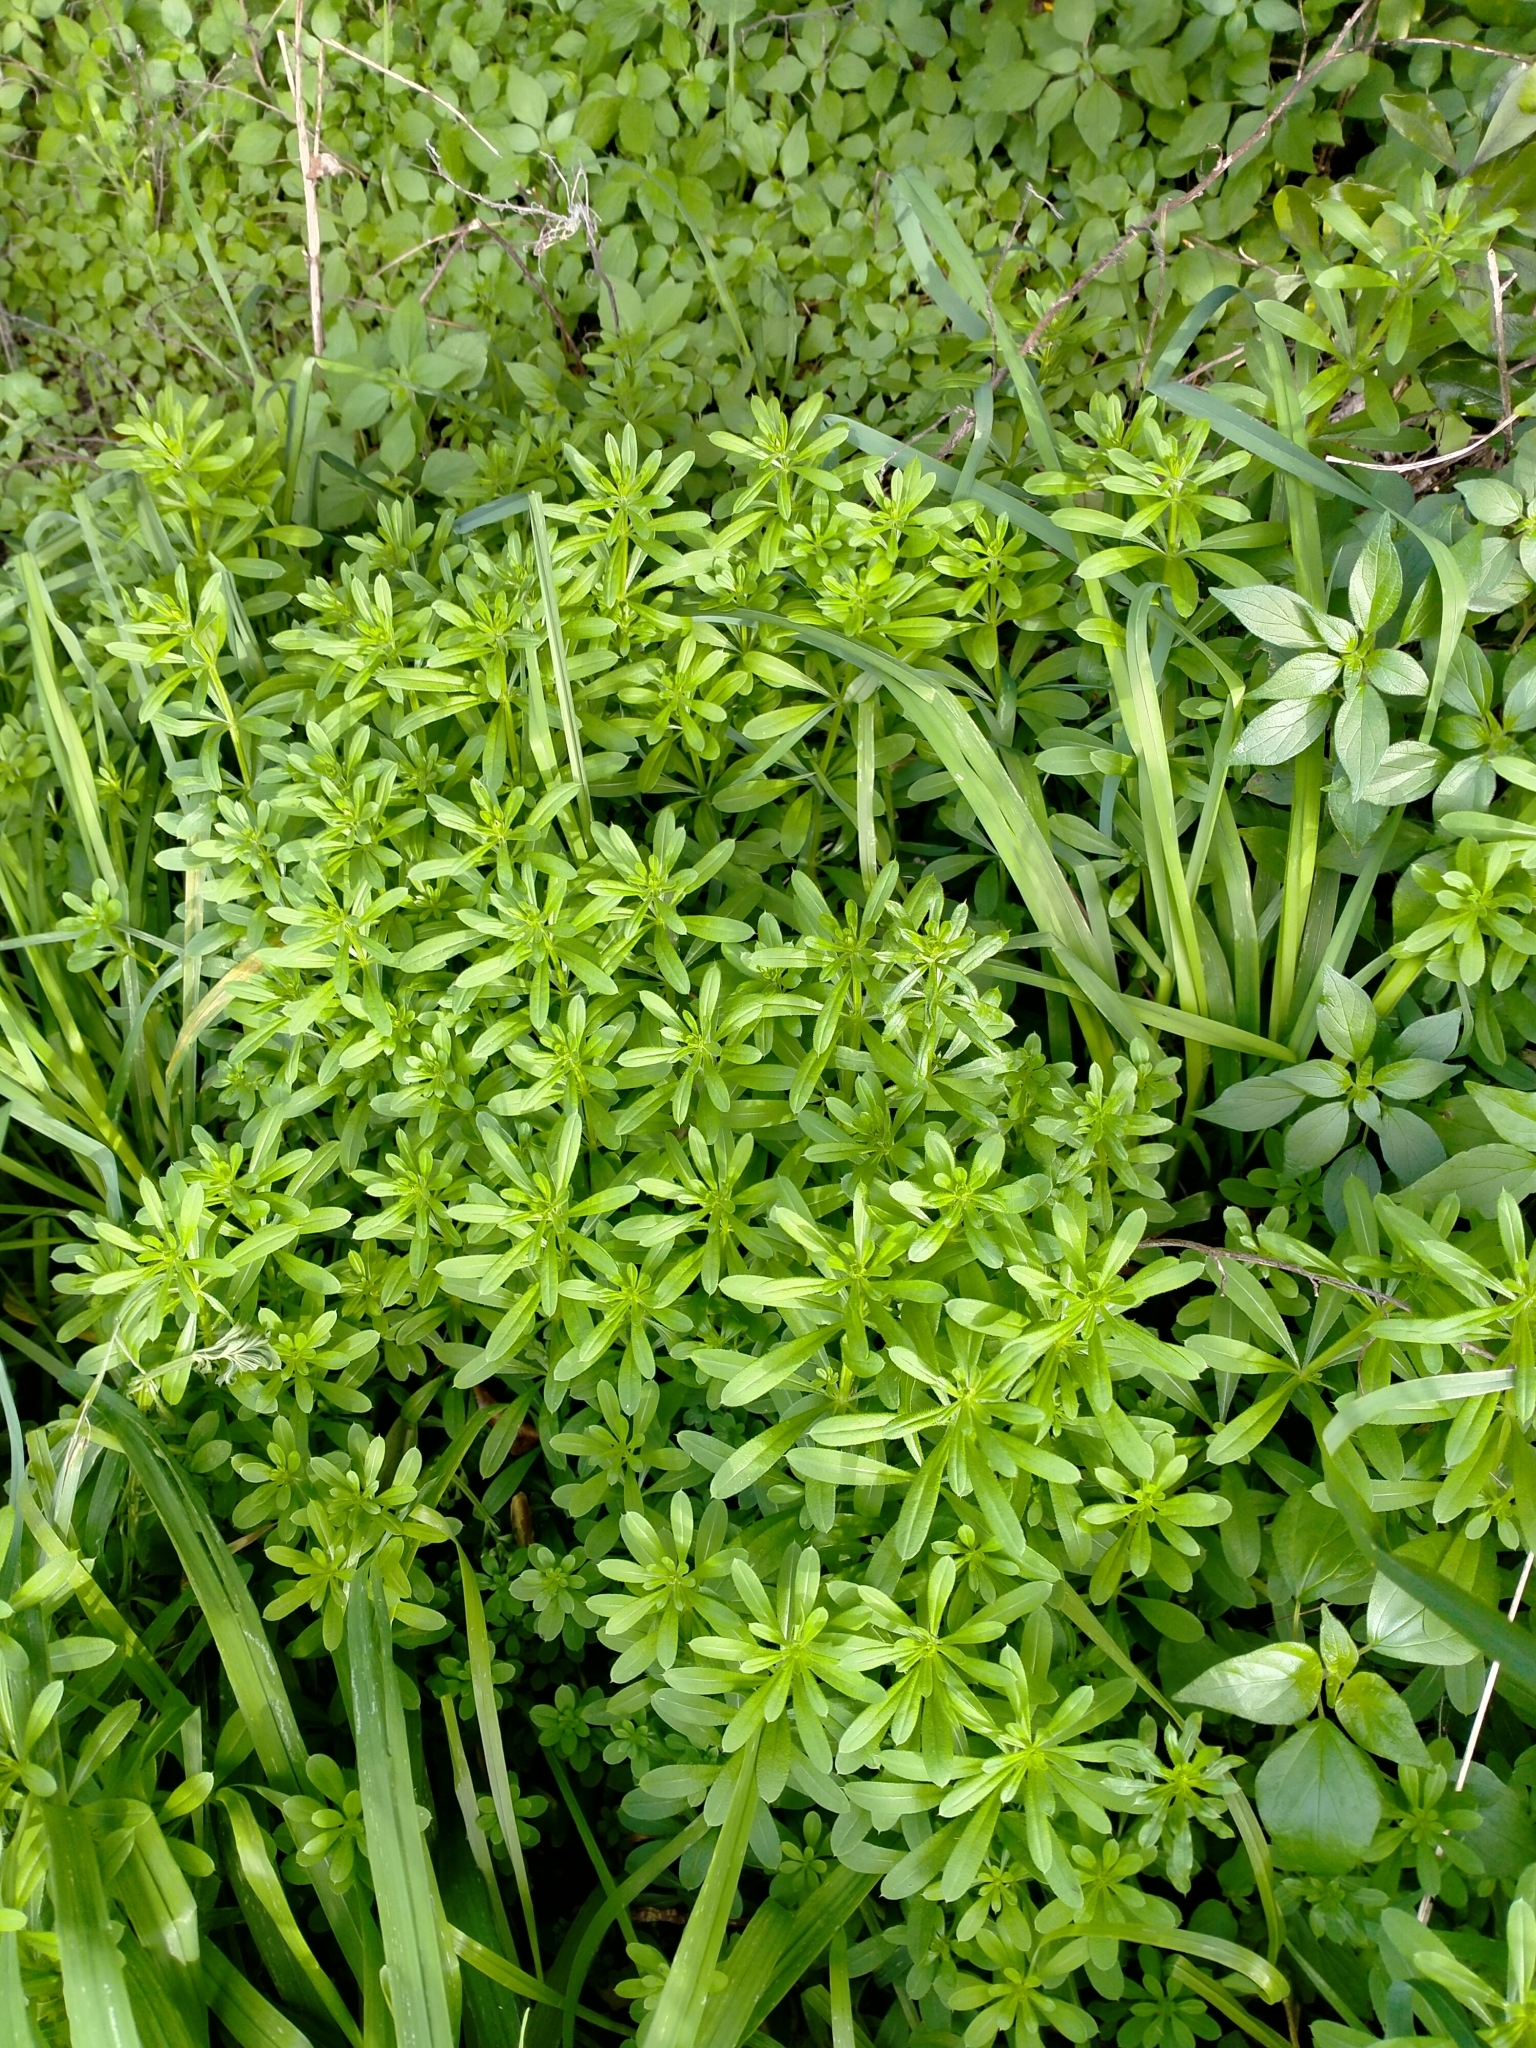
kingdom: Plantae
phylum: Tracheophyta
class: Magnoliopsida
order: Gentianales
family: Rubiaceae
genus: Galium
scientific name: Galium aparine
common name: Cleavers
